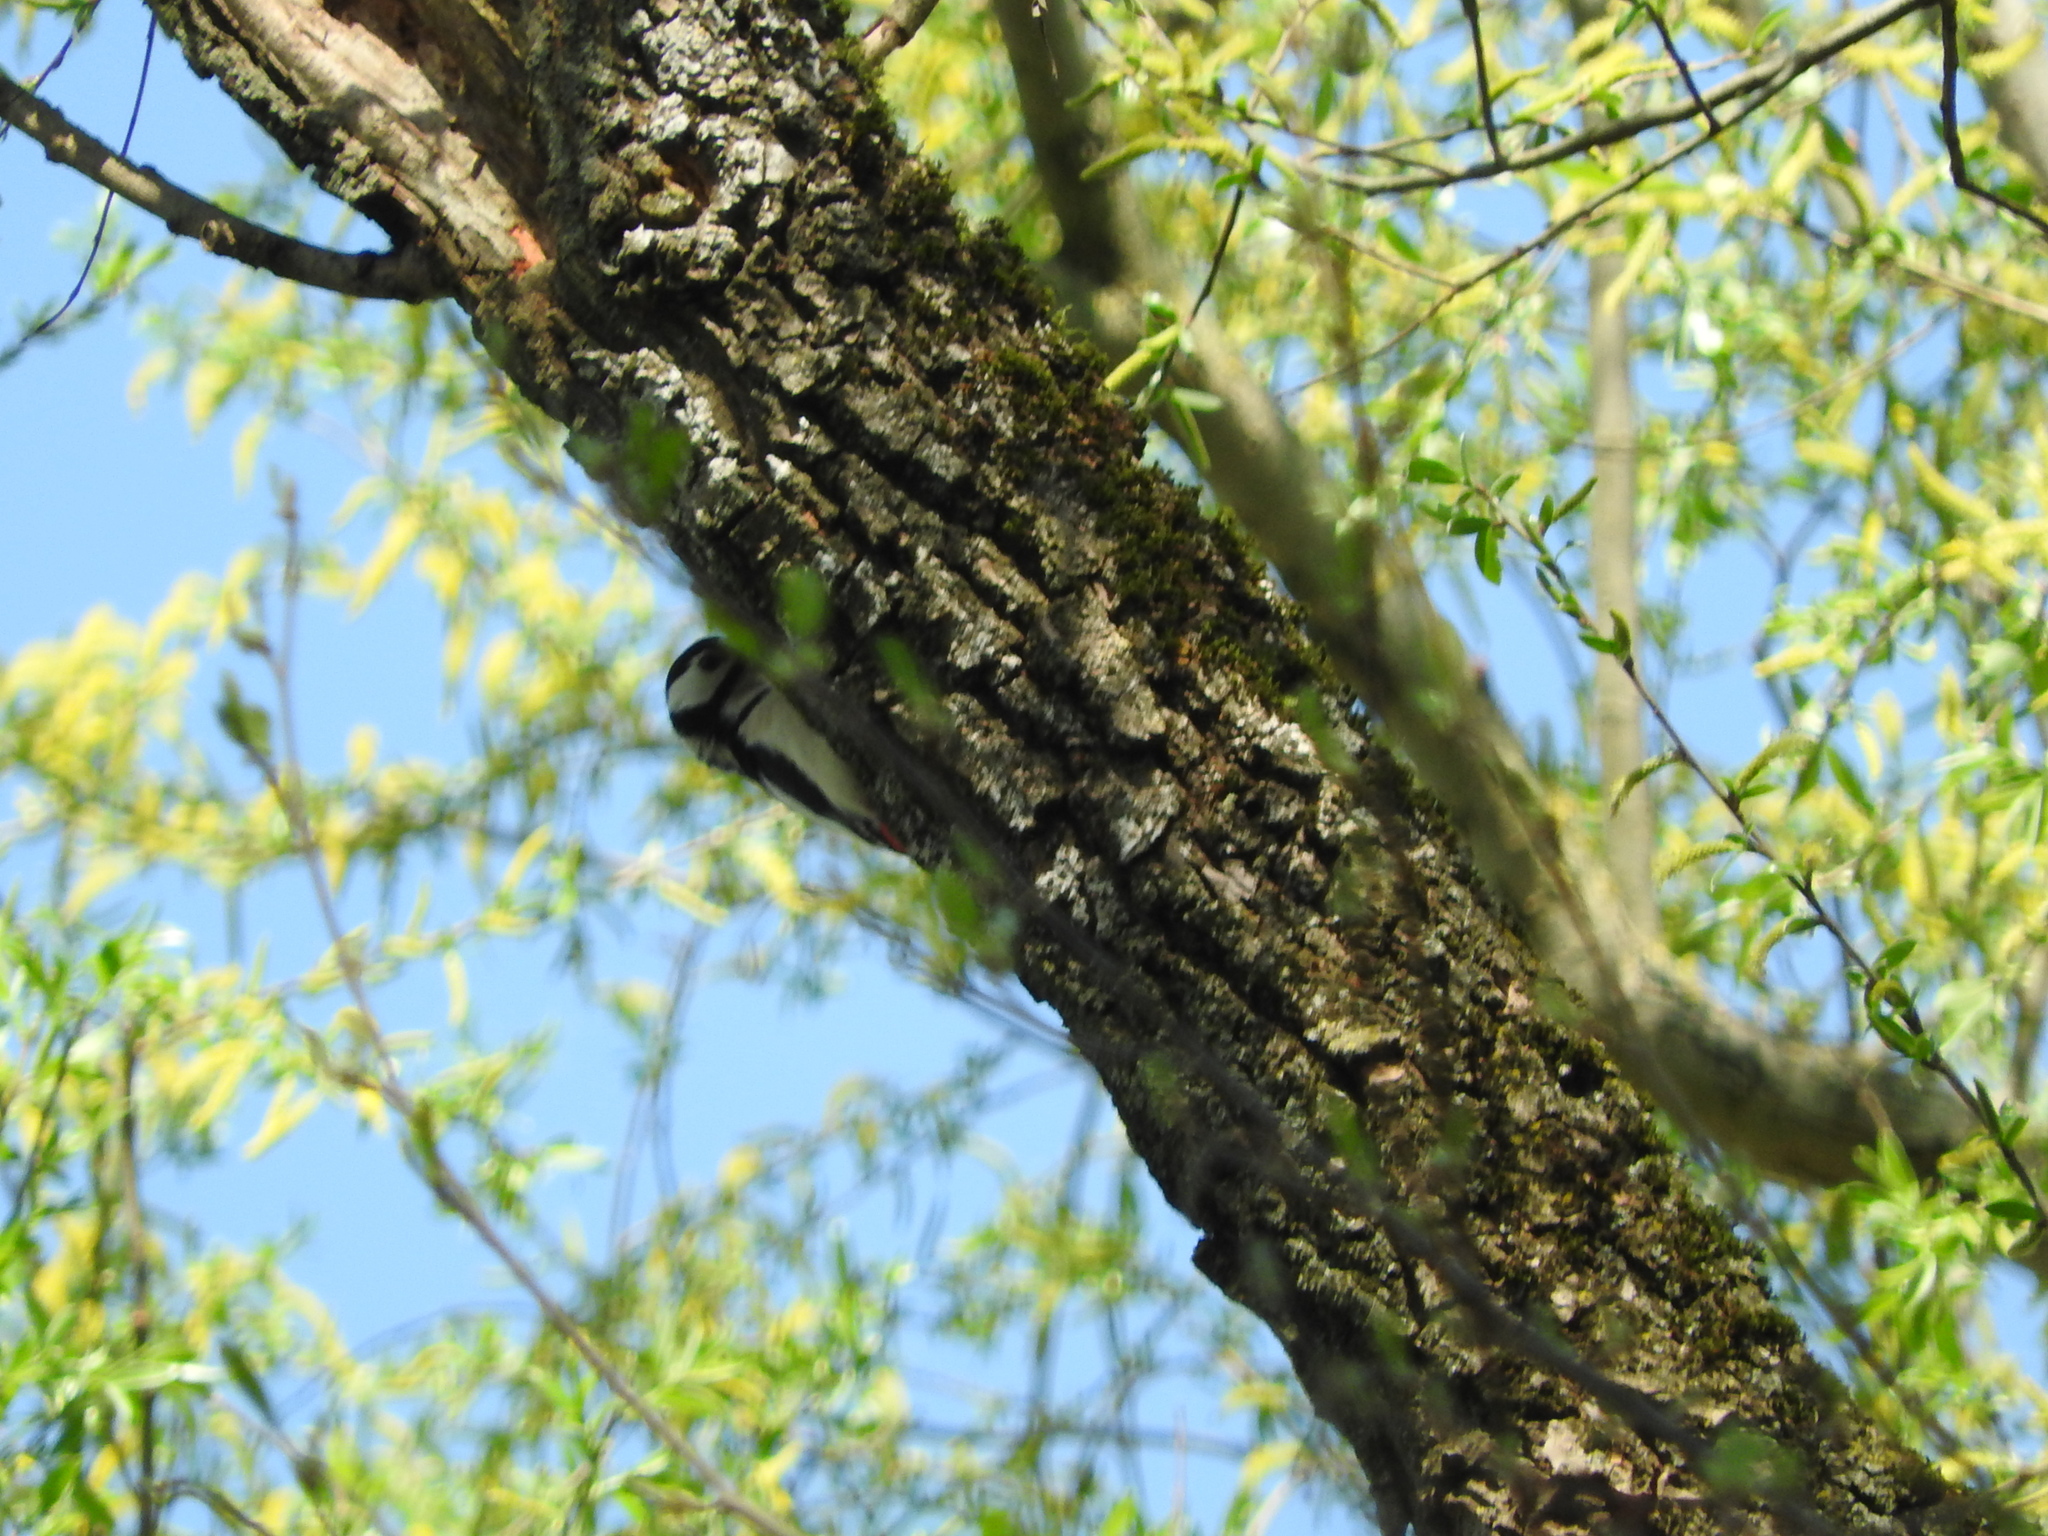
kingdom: Animalia
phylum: Chordata
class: Aves
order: Piciformes
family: Picidae
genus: Dendrocopos
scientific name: Dendrocopos major
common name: Great spotted woodpecker
